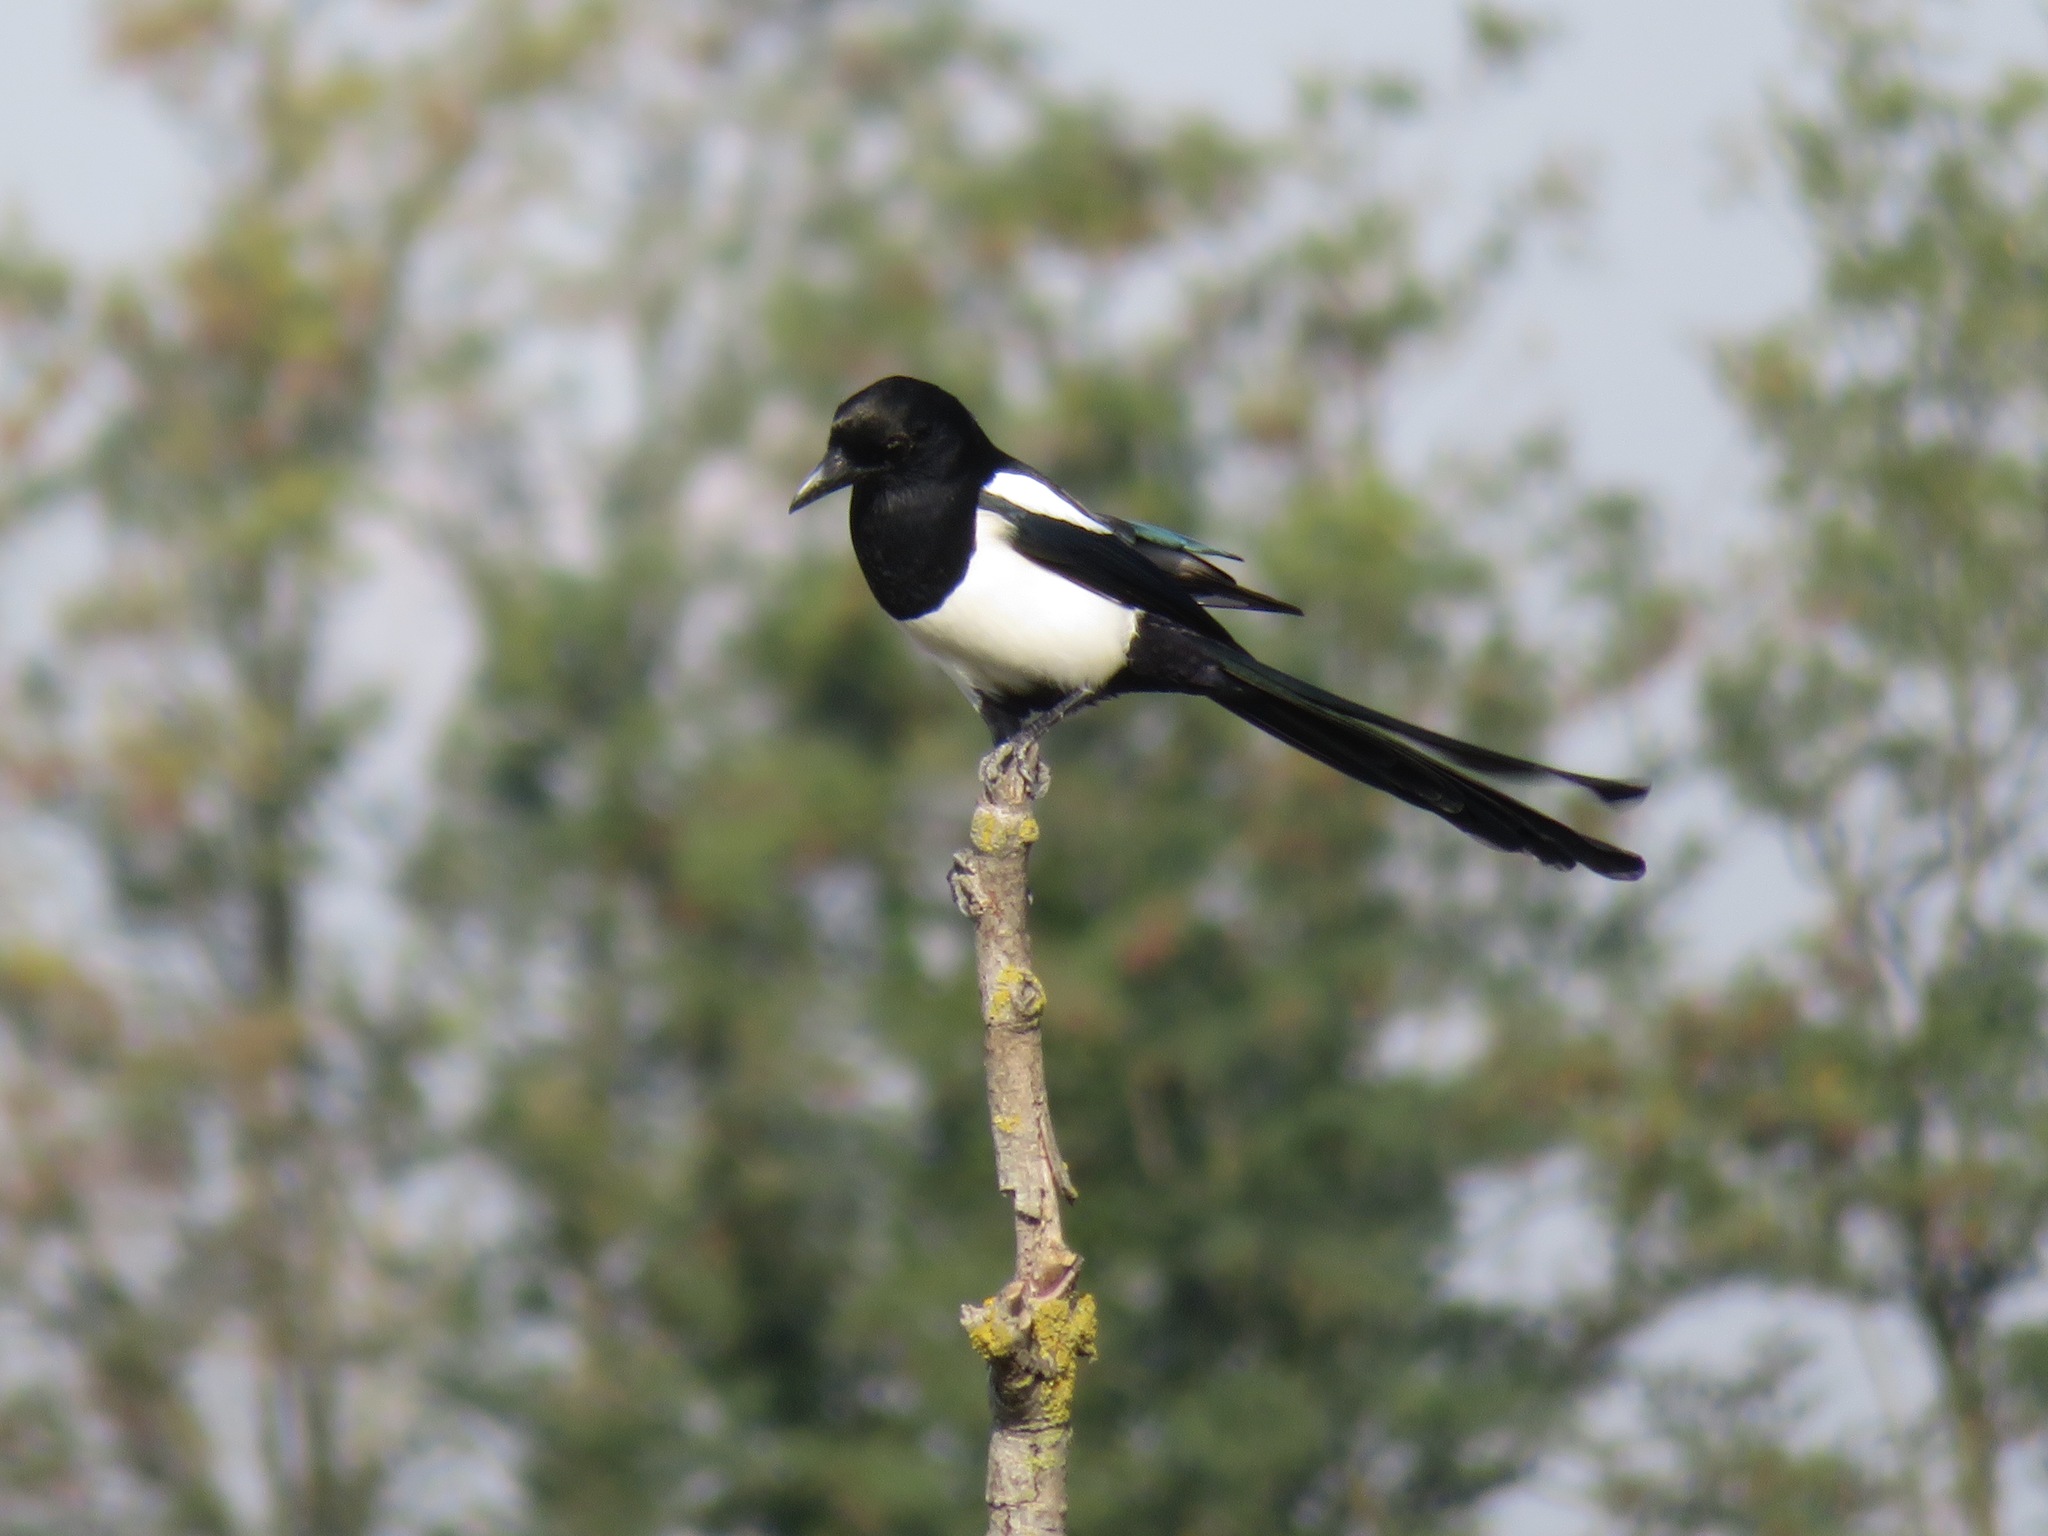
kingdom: Animalia
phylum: Chordata
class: Aves
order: Passeriformes
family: Corvidae
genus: Pica
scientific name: Pica pica
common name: Eurasian magpie
